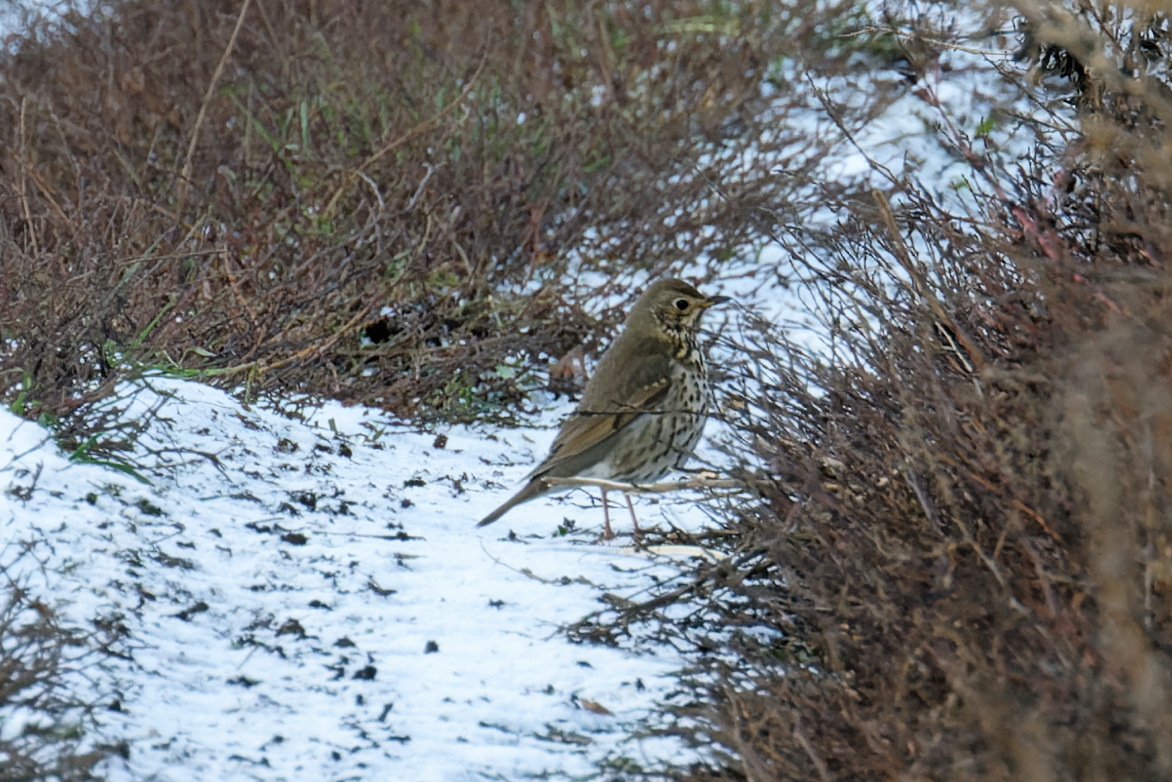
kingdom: Animalia
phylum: Chordata
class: Aves
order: Passeriformes
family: Turdidae
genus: Turdus
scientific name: Turdus philomelos
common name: Song thrush
